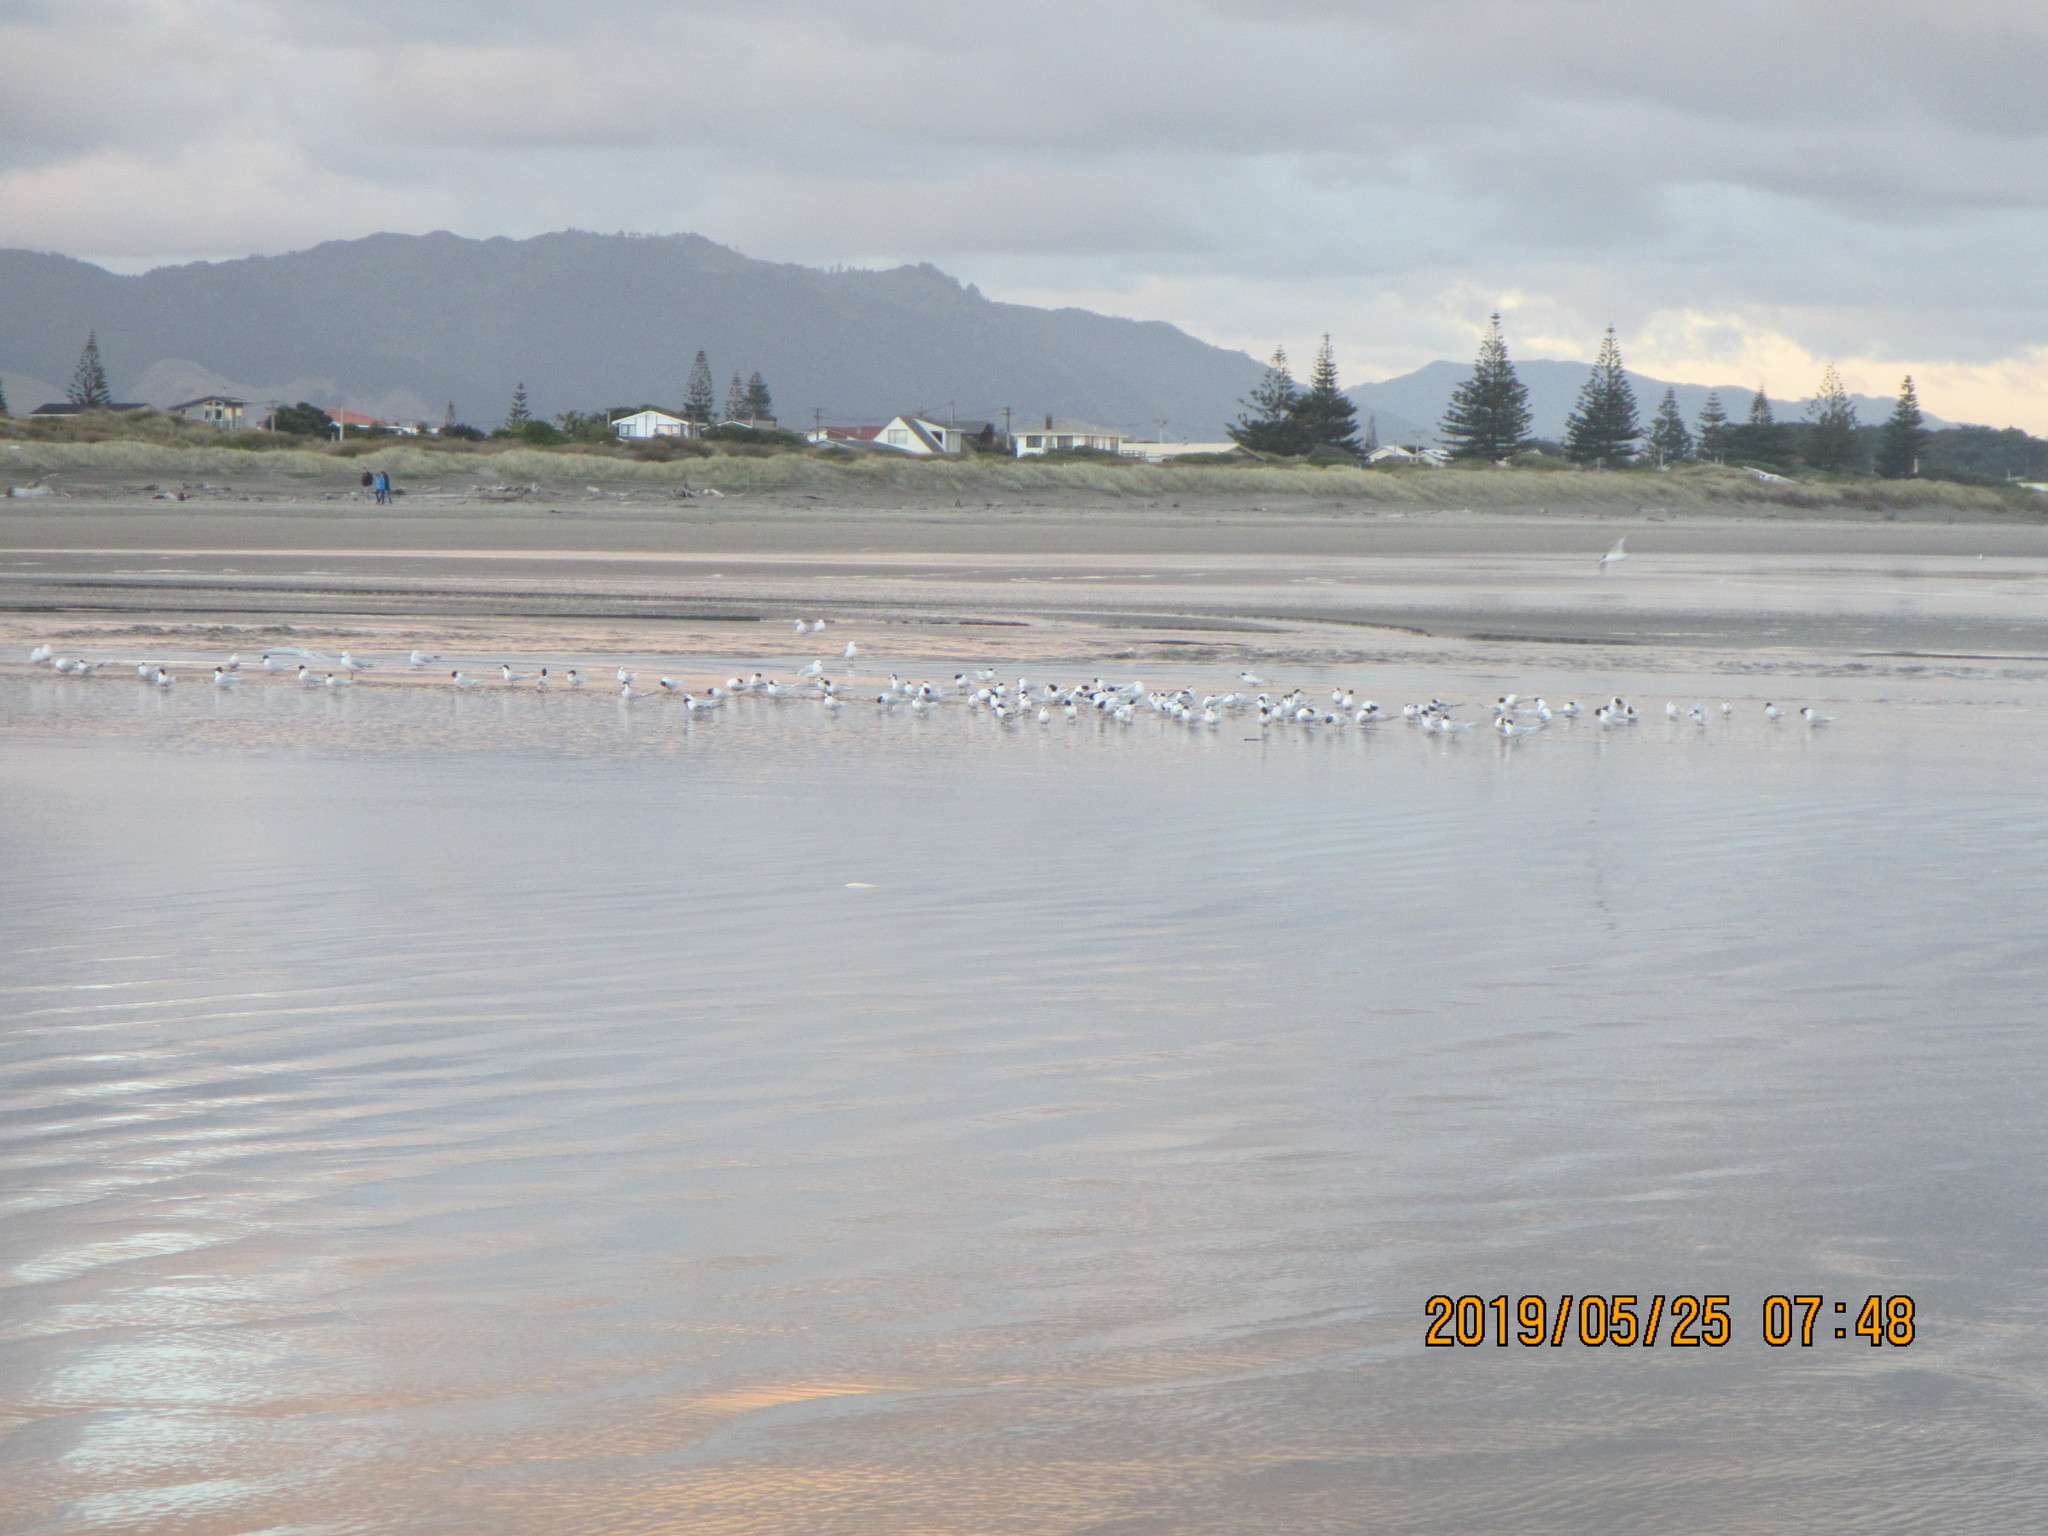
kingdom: Animalia
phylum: Chordata
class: Aves
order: Charadriiformes
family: Laridae
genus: Sterna
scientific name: Sterna striata
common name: White-fronted tern
